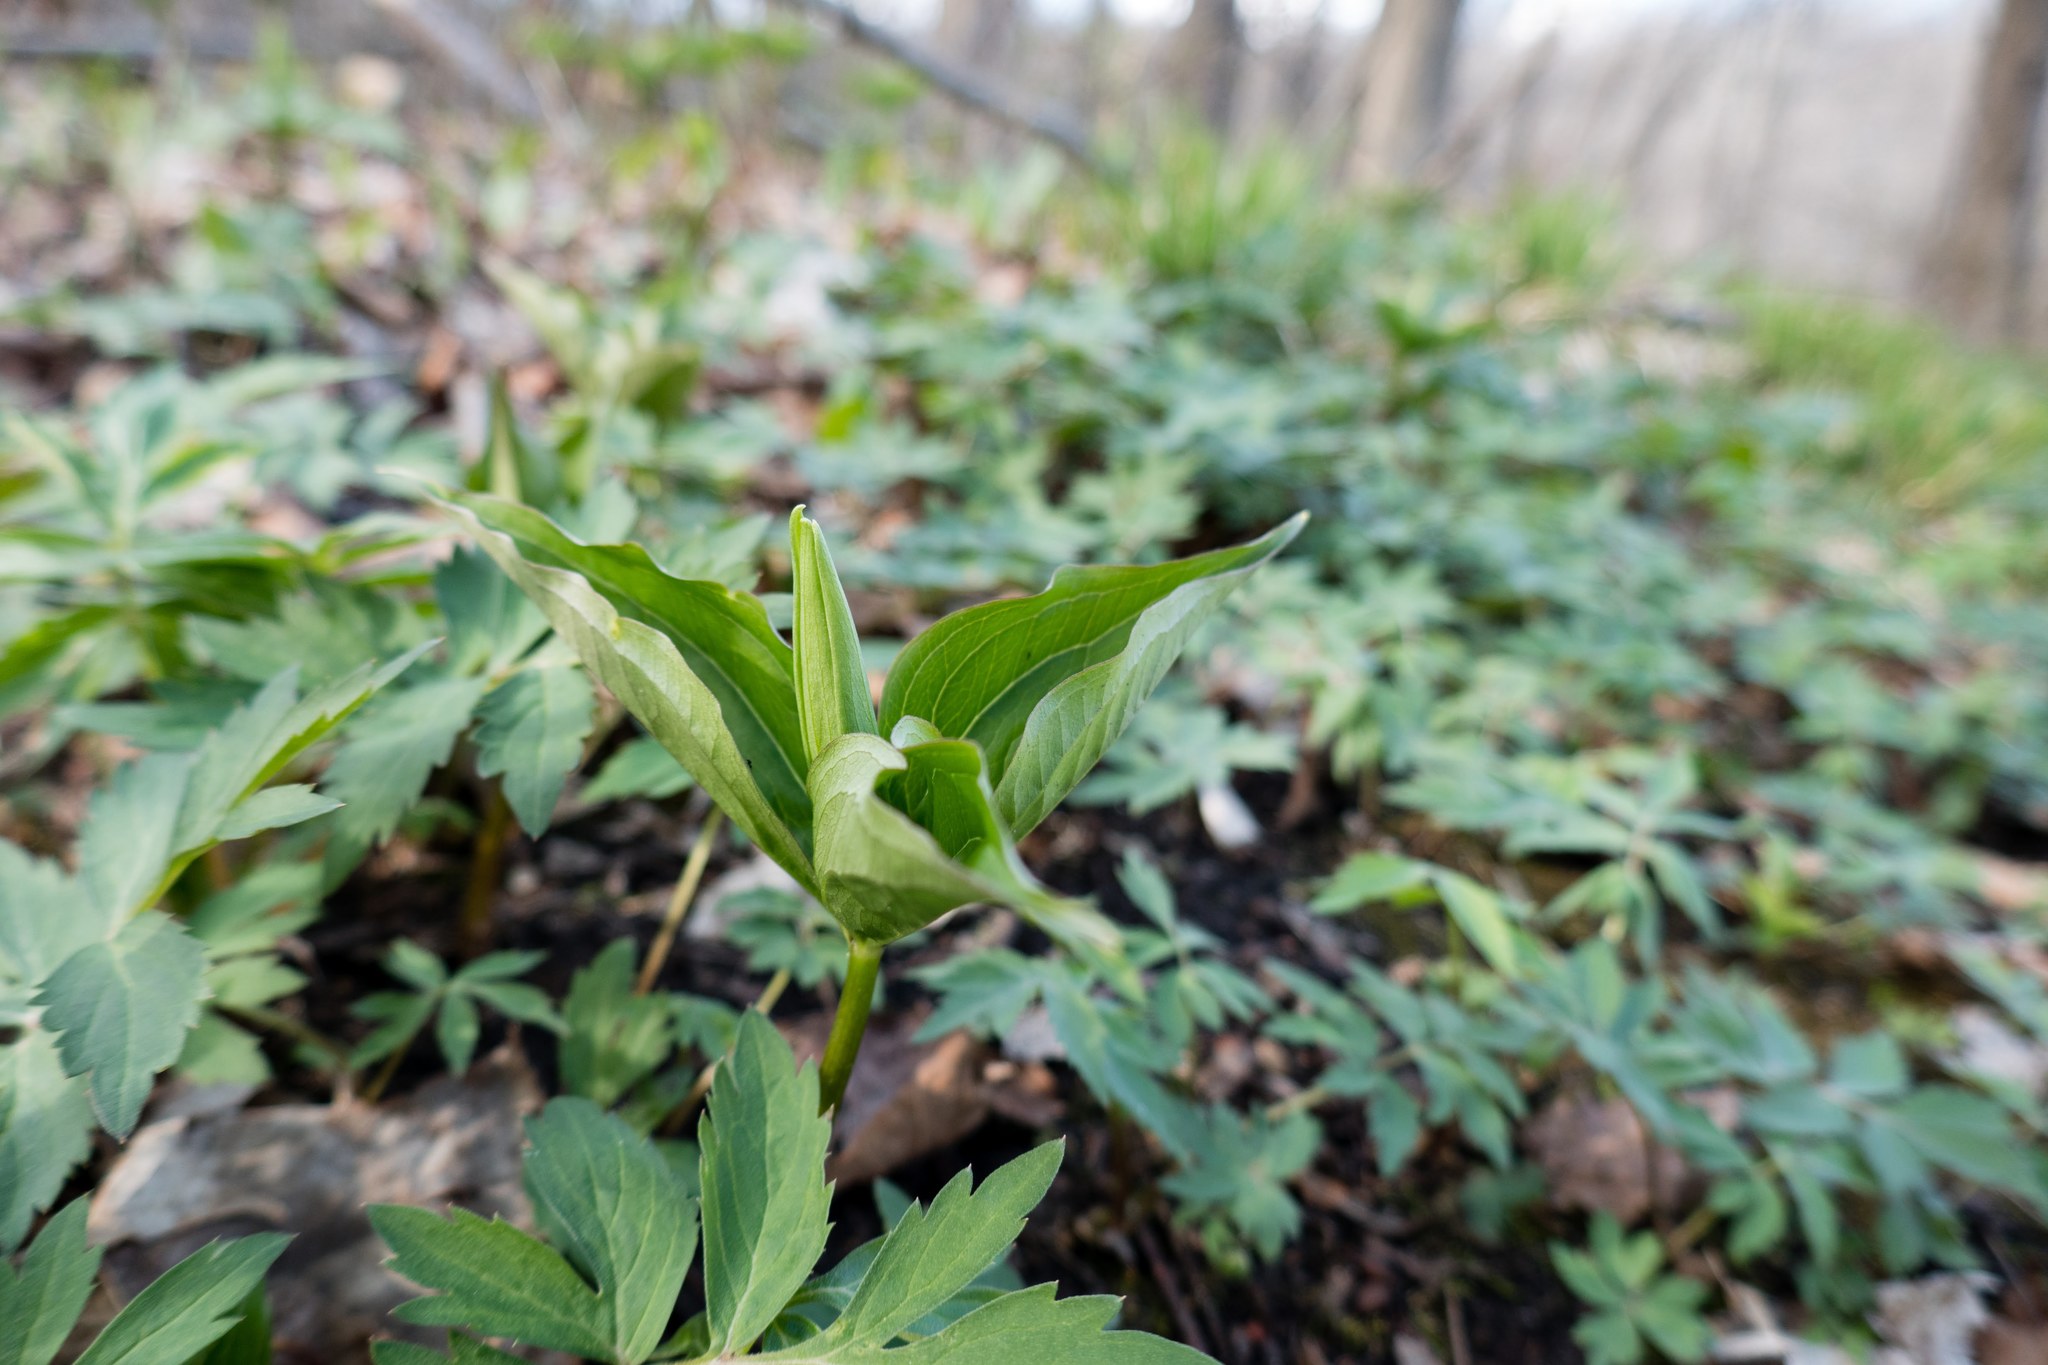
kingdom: Plantae
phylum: Tracheophyta
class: Liliopsida
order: Liliales
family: Melanthiaceae
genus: Trillium
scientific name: Trillium grandiflorum
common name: Great white trillium
